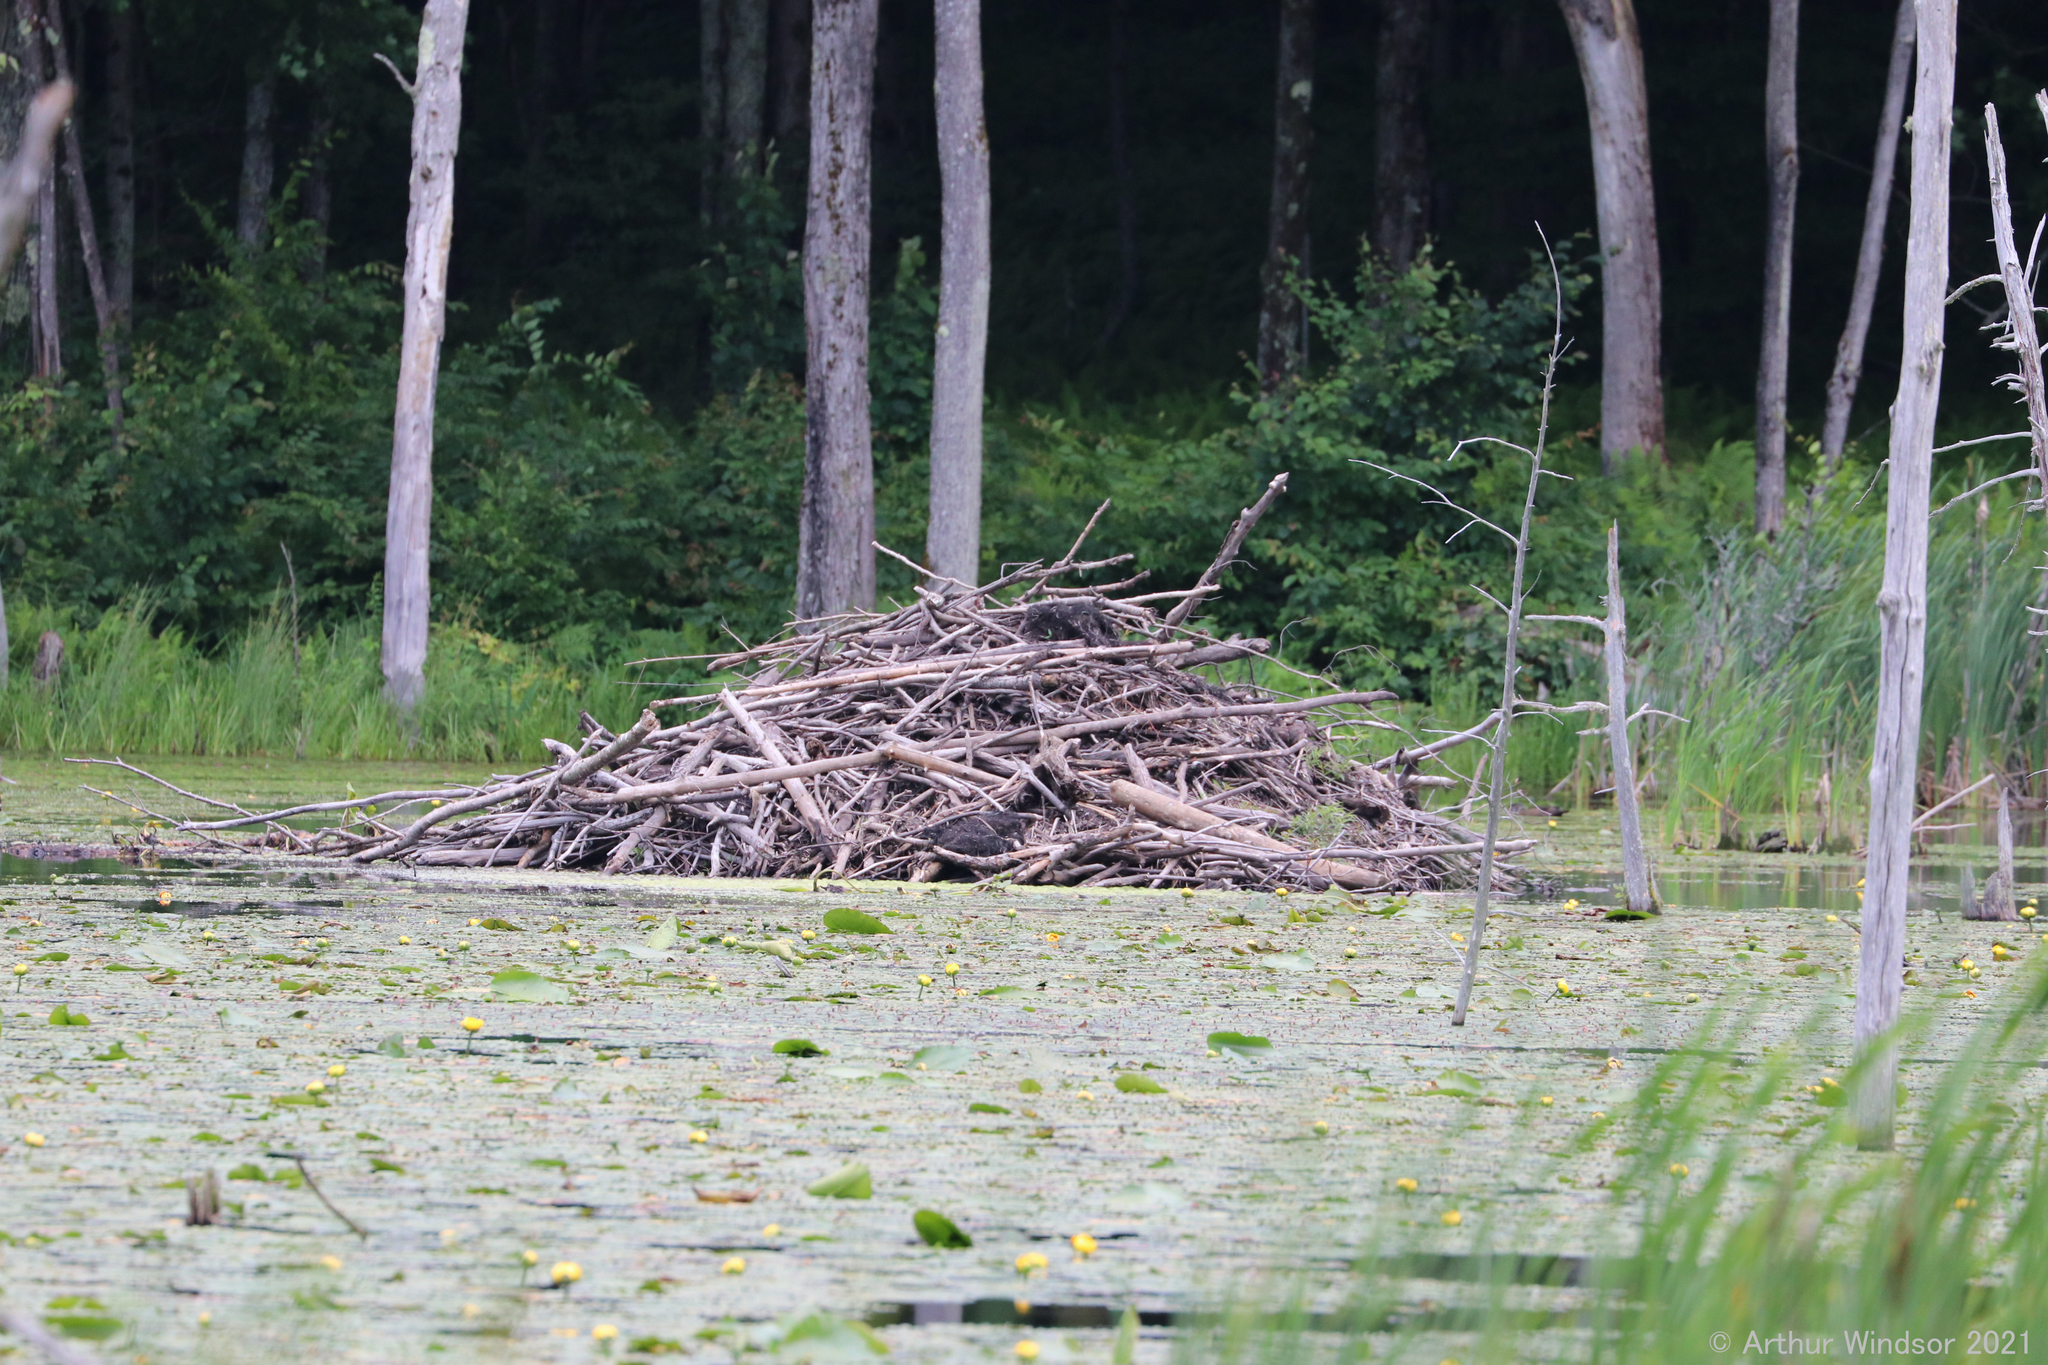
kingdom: Animalia
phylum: Chordata
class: Mammalia
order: Rodentia
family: Castoridae
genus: Castor
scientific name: Castor canadensis
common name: American beaver
